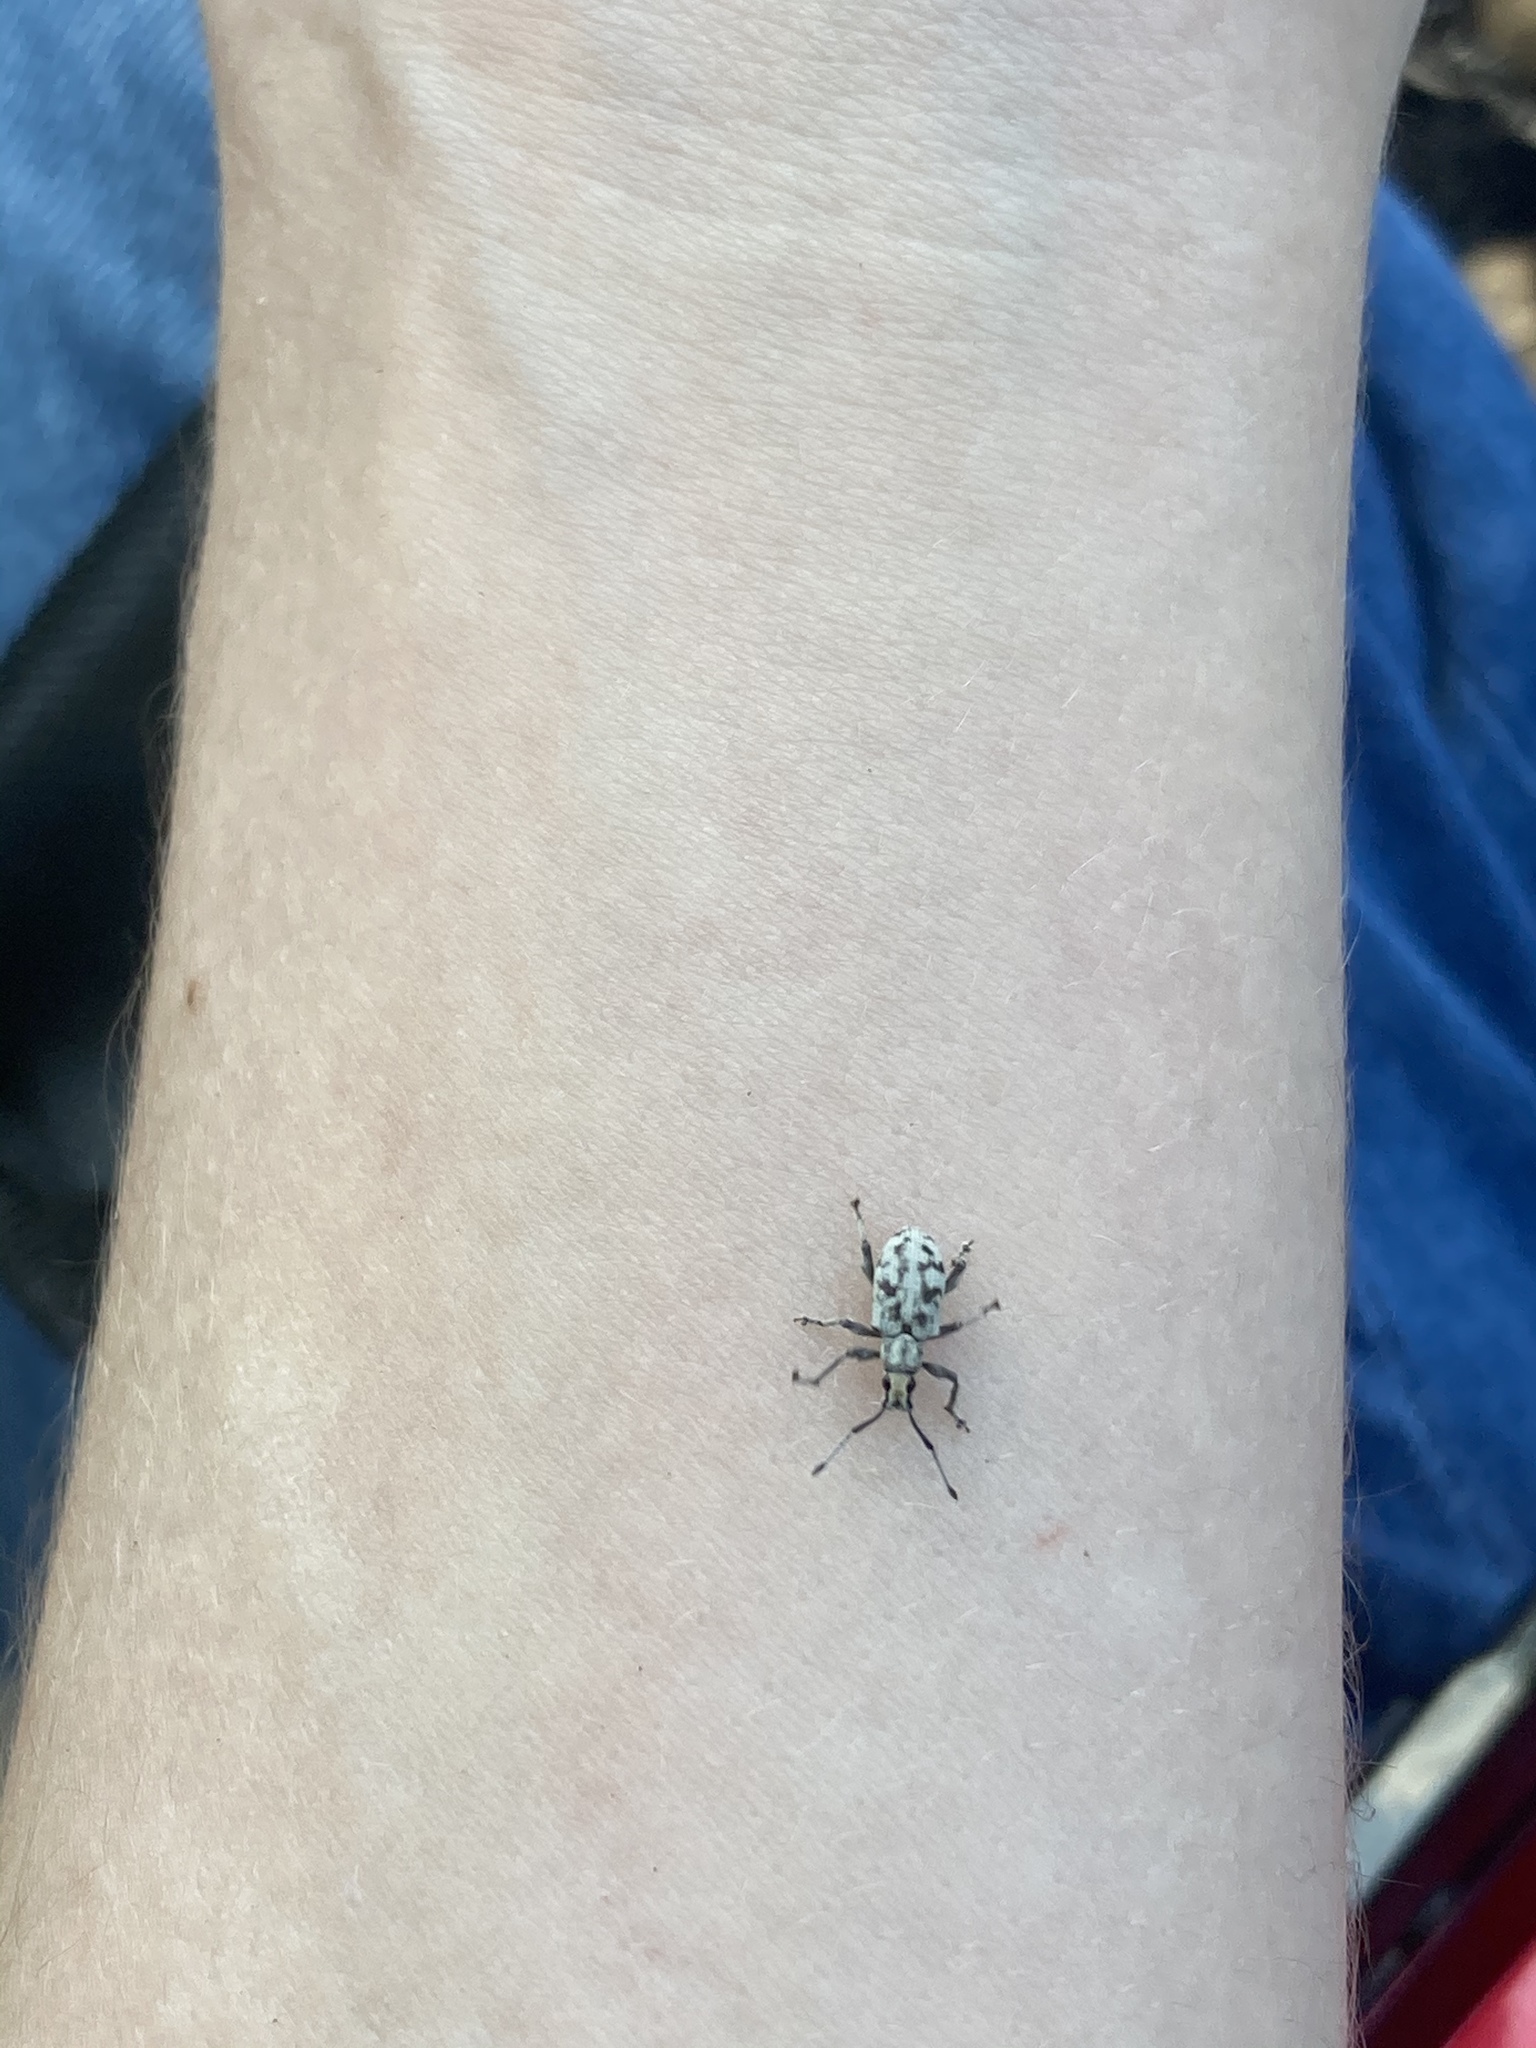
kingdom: Animalia
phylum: Arthropoda
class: Insecta
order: Coleoptera
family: Curculionidae
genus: Myllocerus
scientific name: Myllocerus undecimpustulatus
